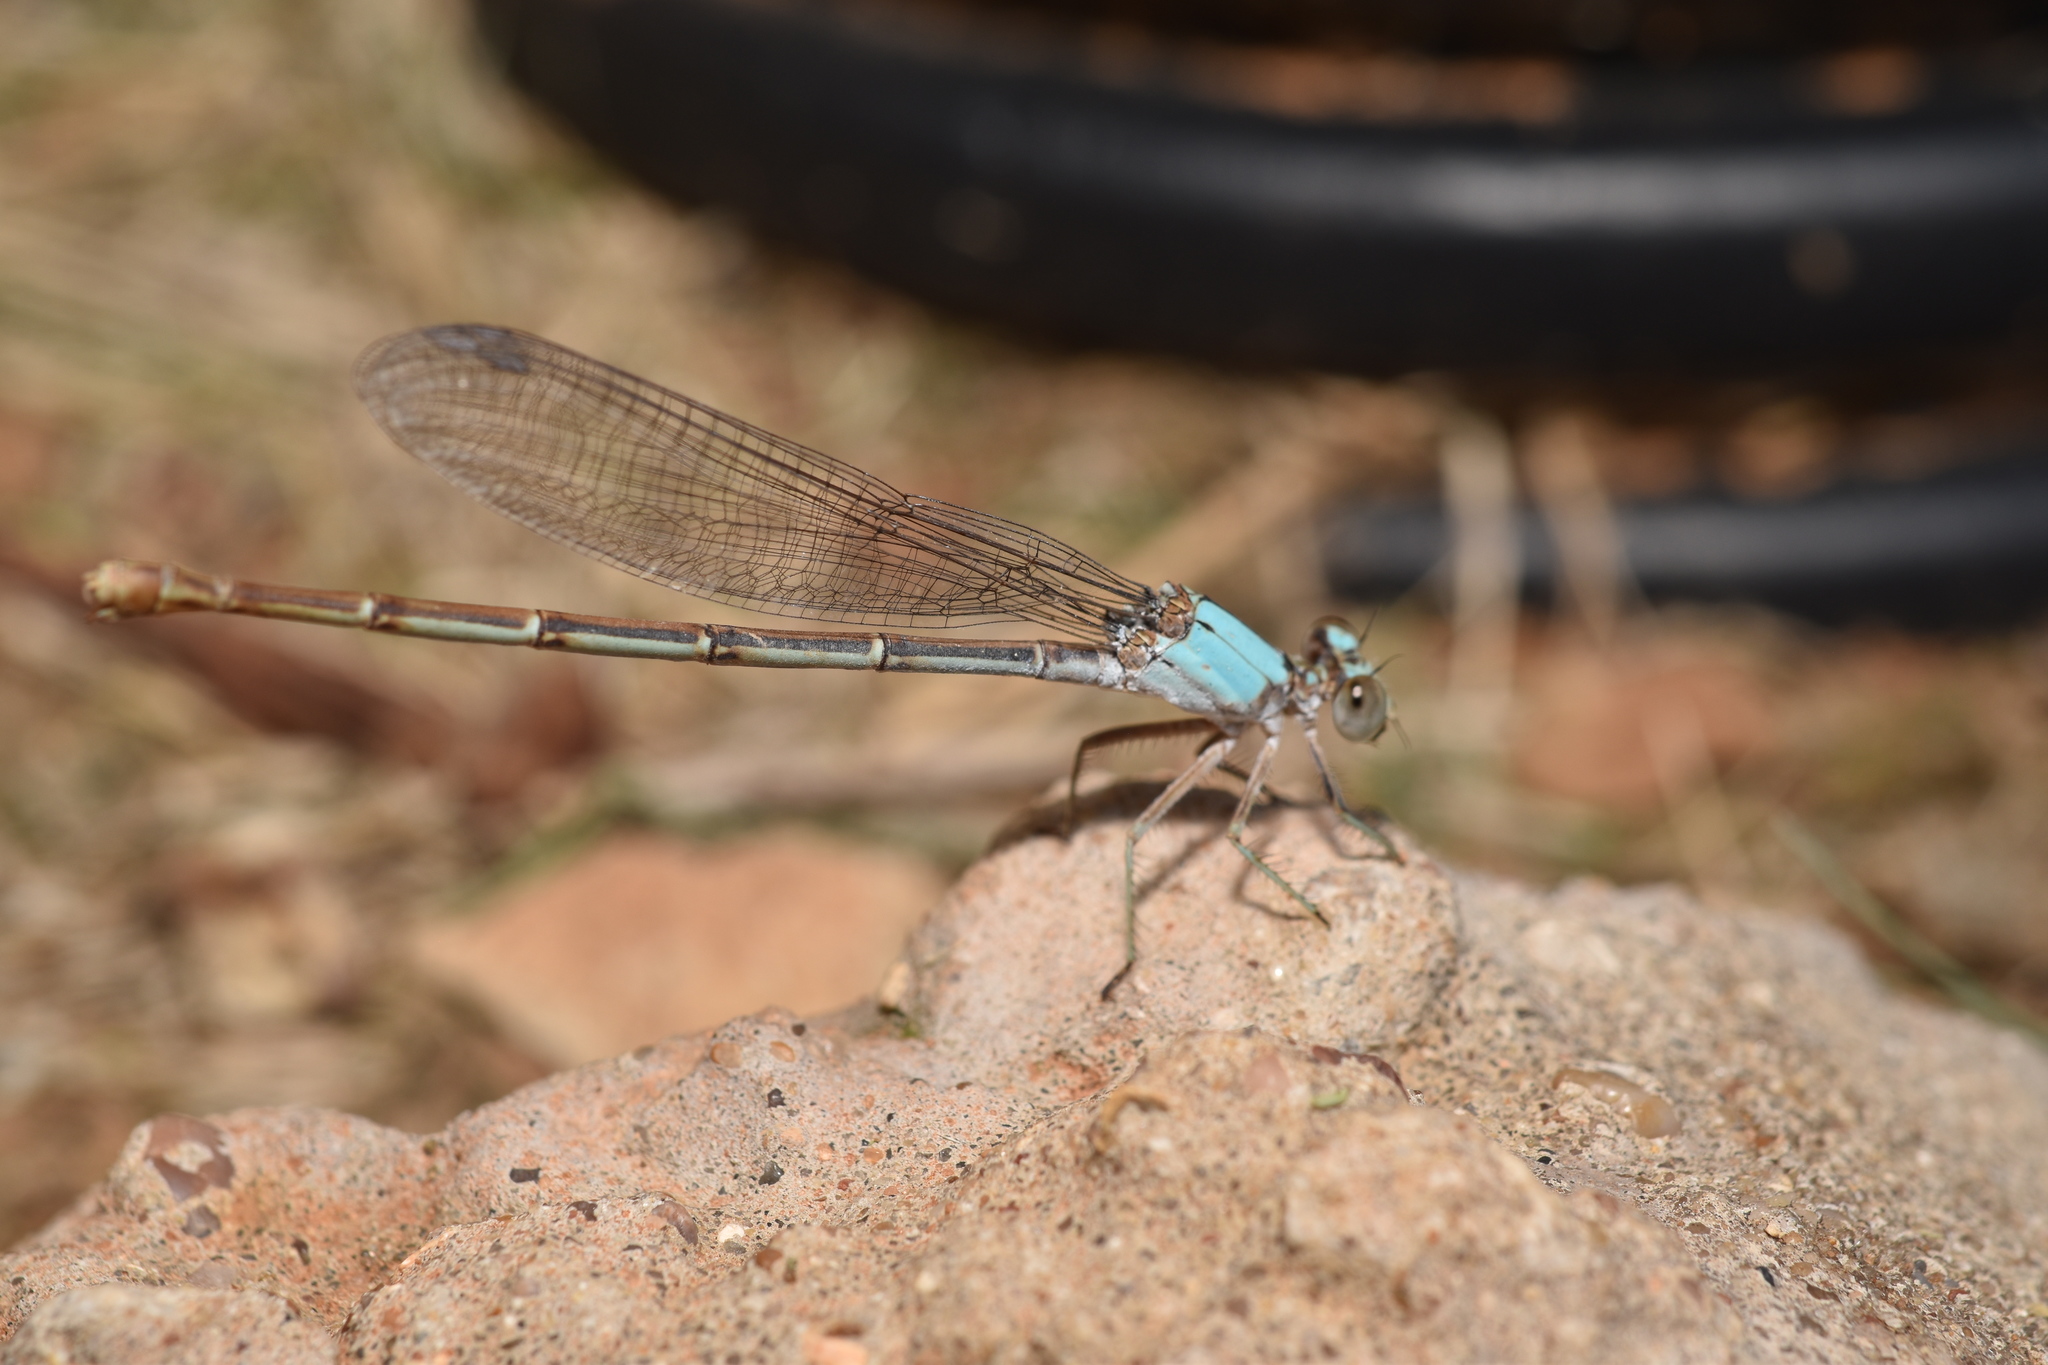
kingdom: Animalia
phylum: Arthropoda
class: Insecta
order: Odonata
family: Coenagrionidae
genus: Argia
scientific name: Argia moesta
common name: Powdered dancer
